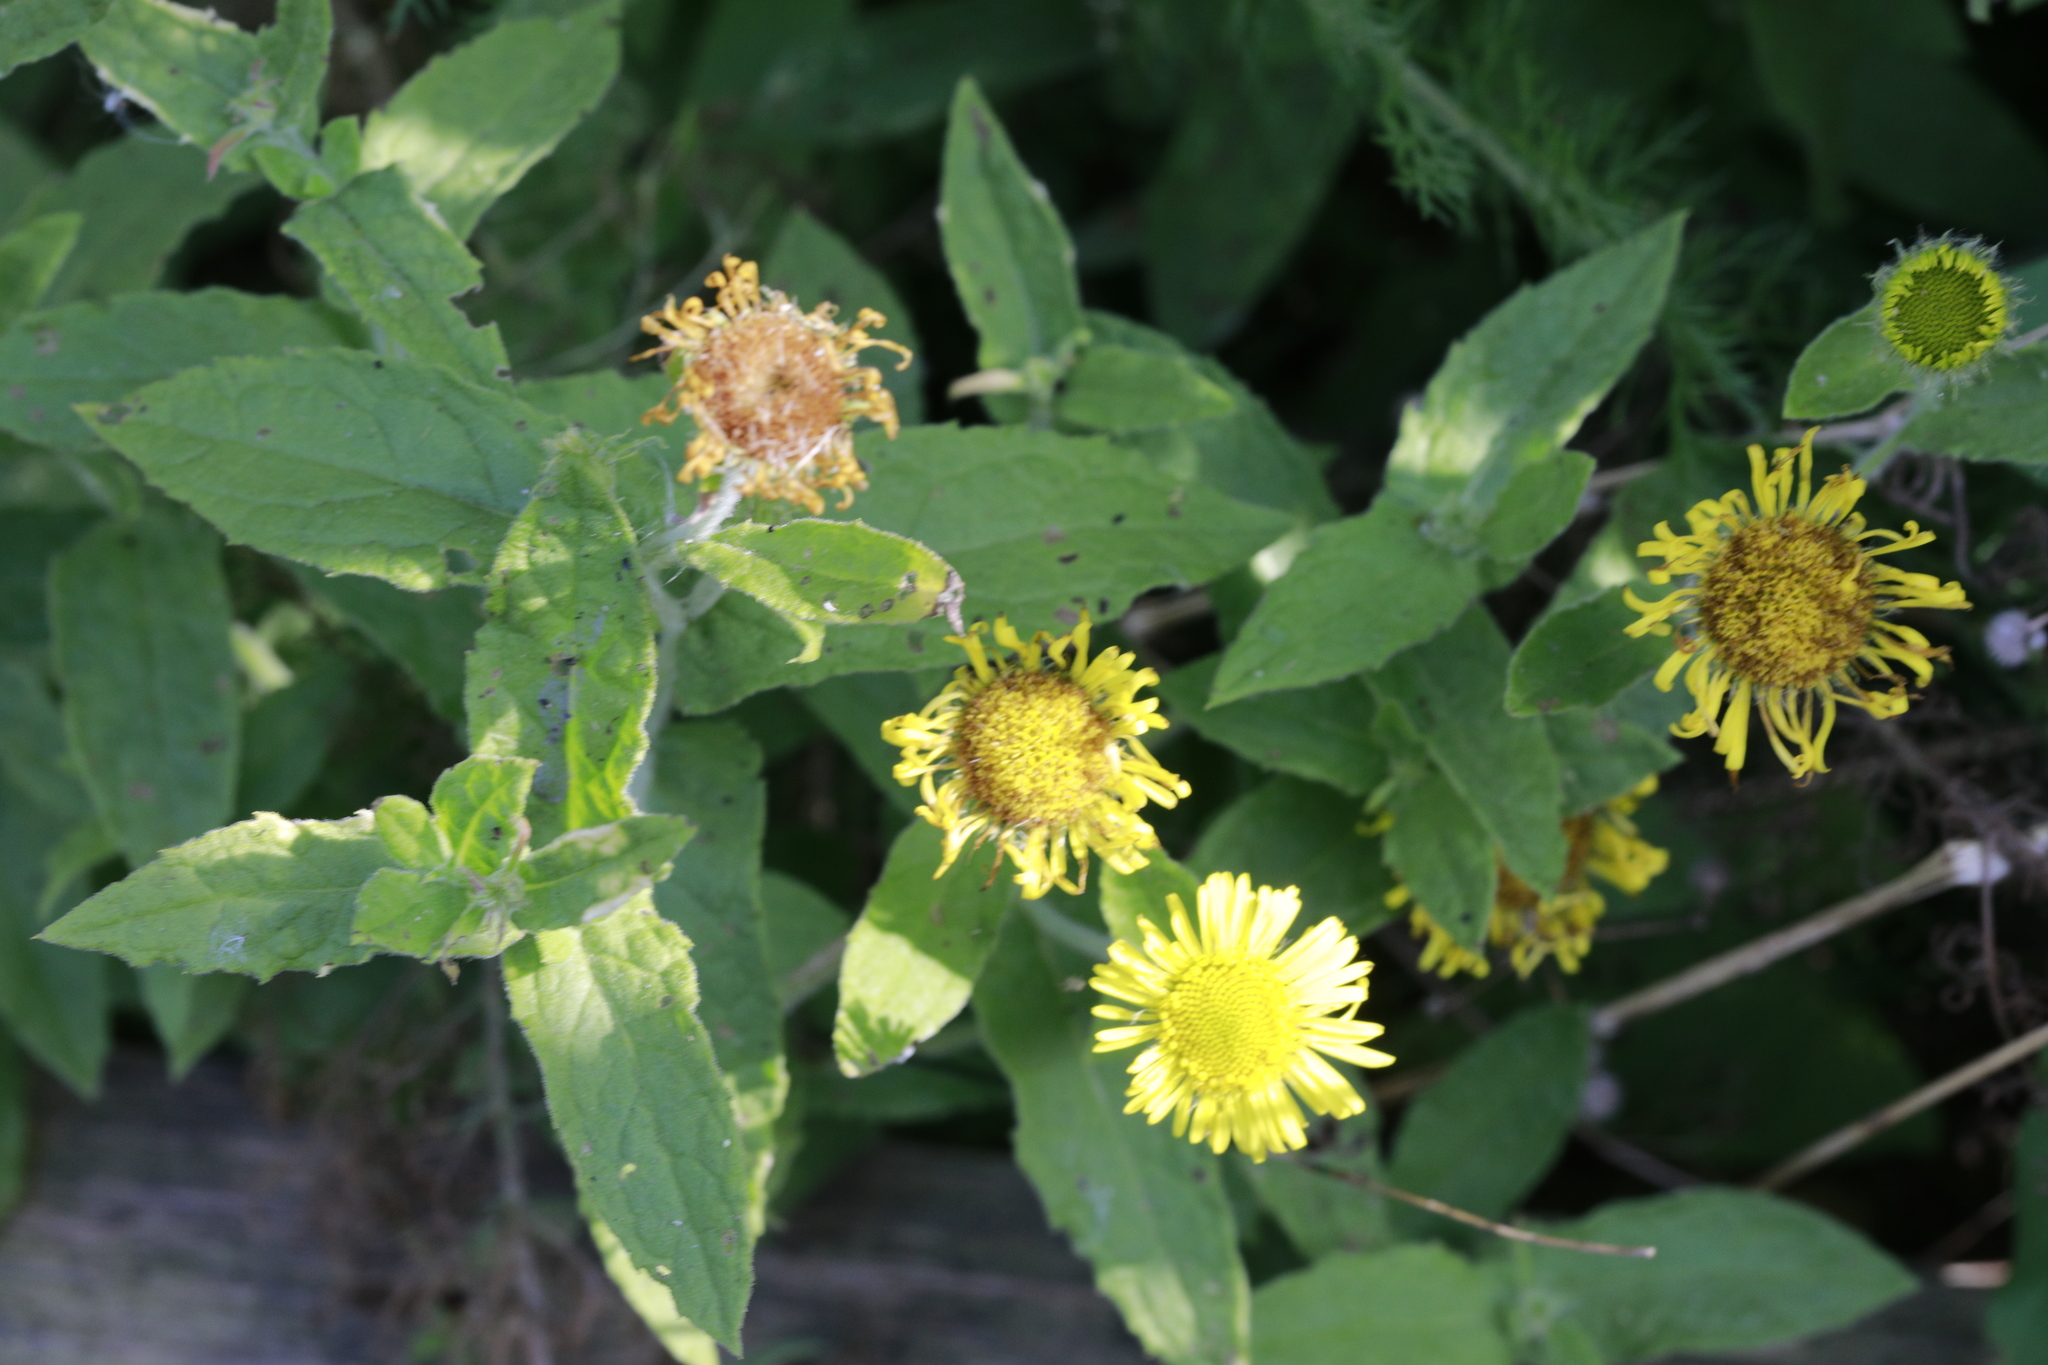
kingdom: Plantae
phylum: Tracheophyta
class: Magnoliopsida
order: Asterales
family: Asteraceae
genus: Pulicaria
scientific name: Pulicaria dysenterica
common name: Common fleabane
